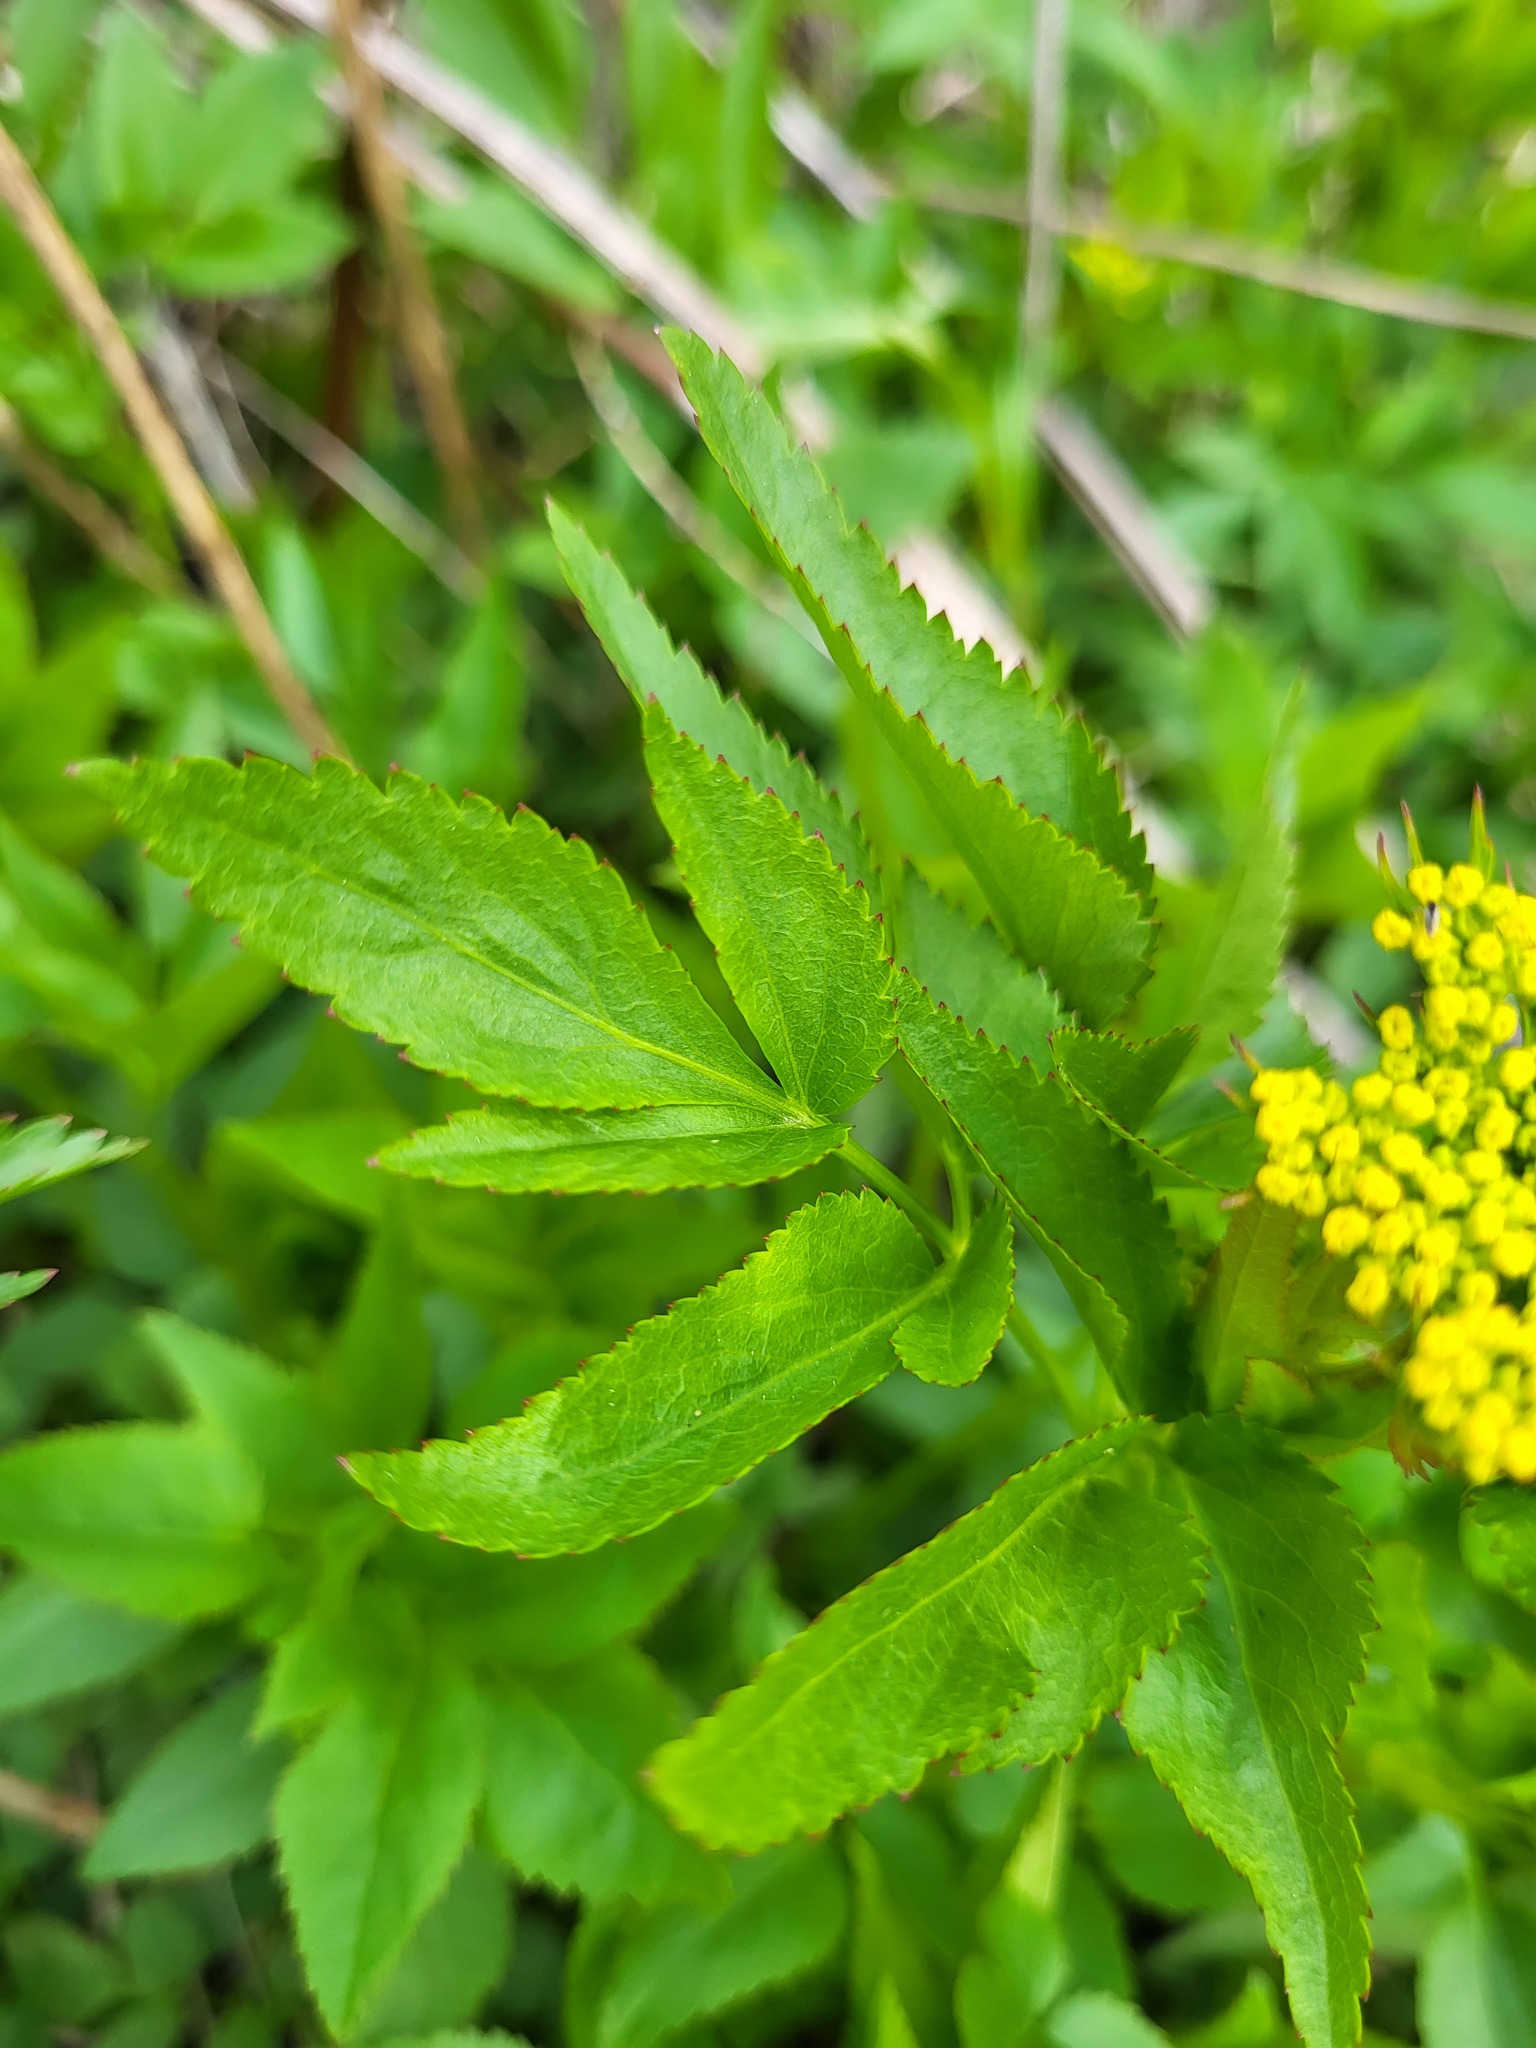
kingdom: Plantae
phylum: Tracheophyta
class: Magnoliopsida
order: Apiales
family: Apiaceae
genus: Zizia
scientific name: Zizia aurea
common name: Golden alexanders
